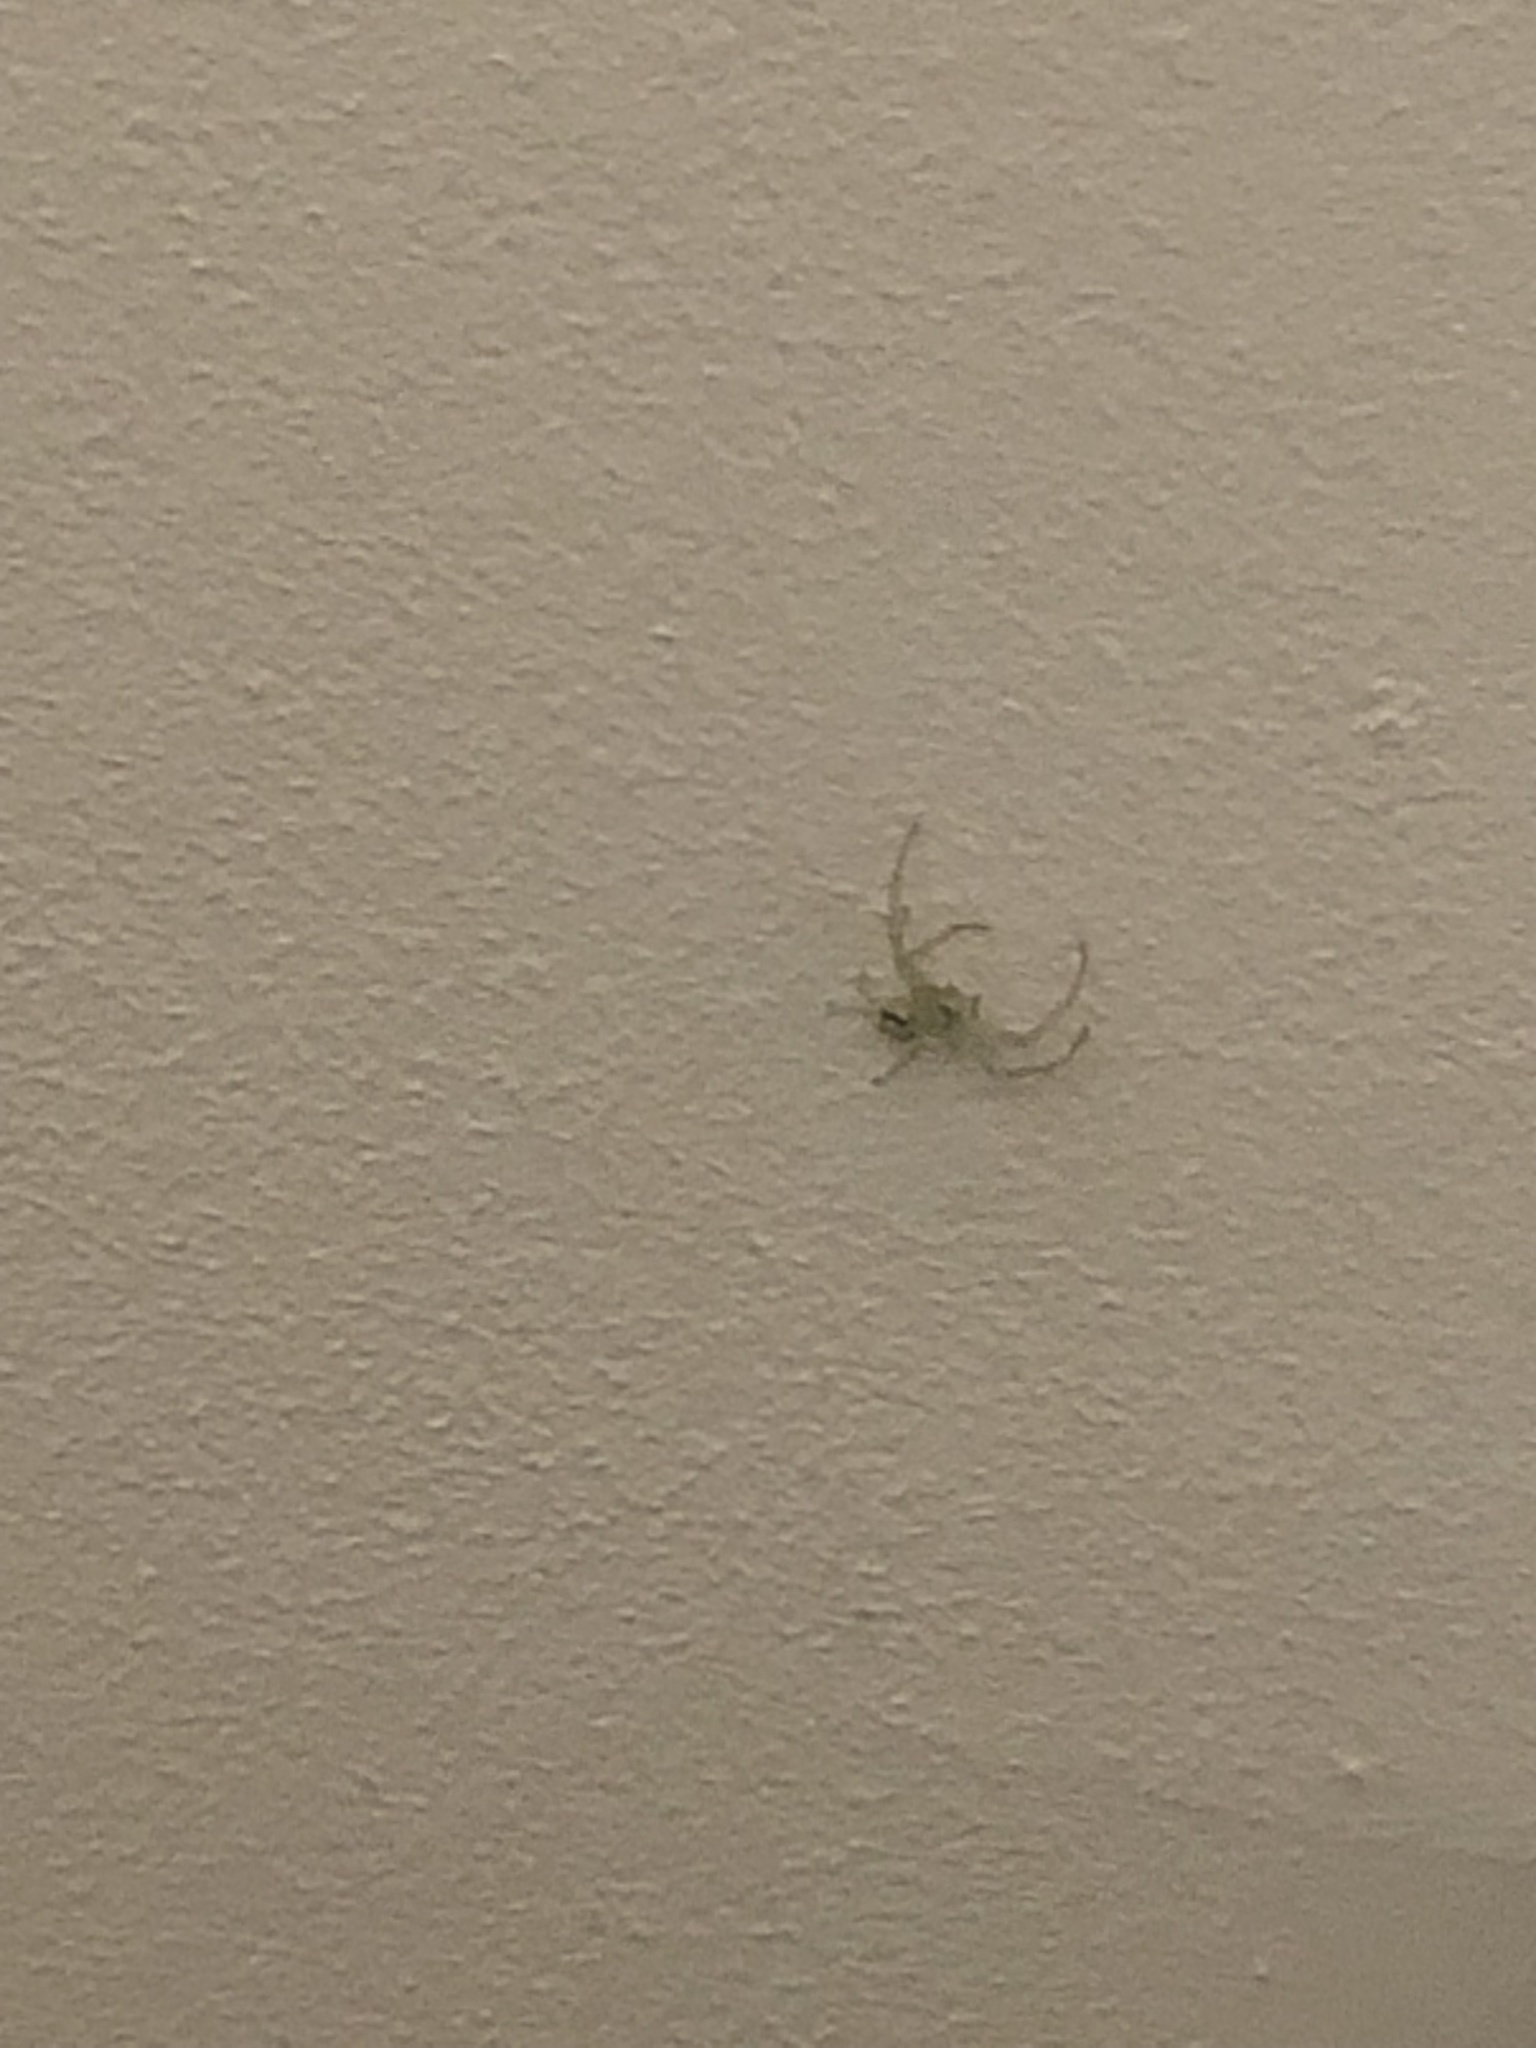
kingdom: Animalia
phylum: Arthropoda
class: Arachnida
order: Araneae
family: Thomisidae
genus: Misumena
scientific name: Misumena vatia
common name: Goldenrod crab spider
